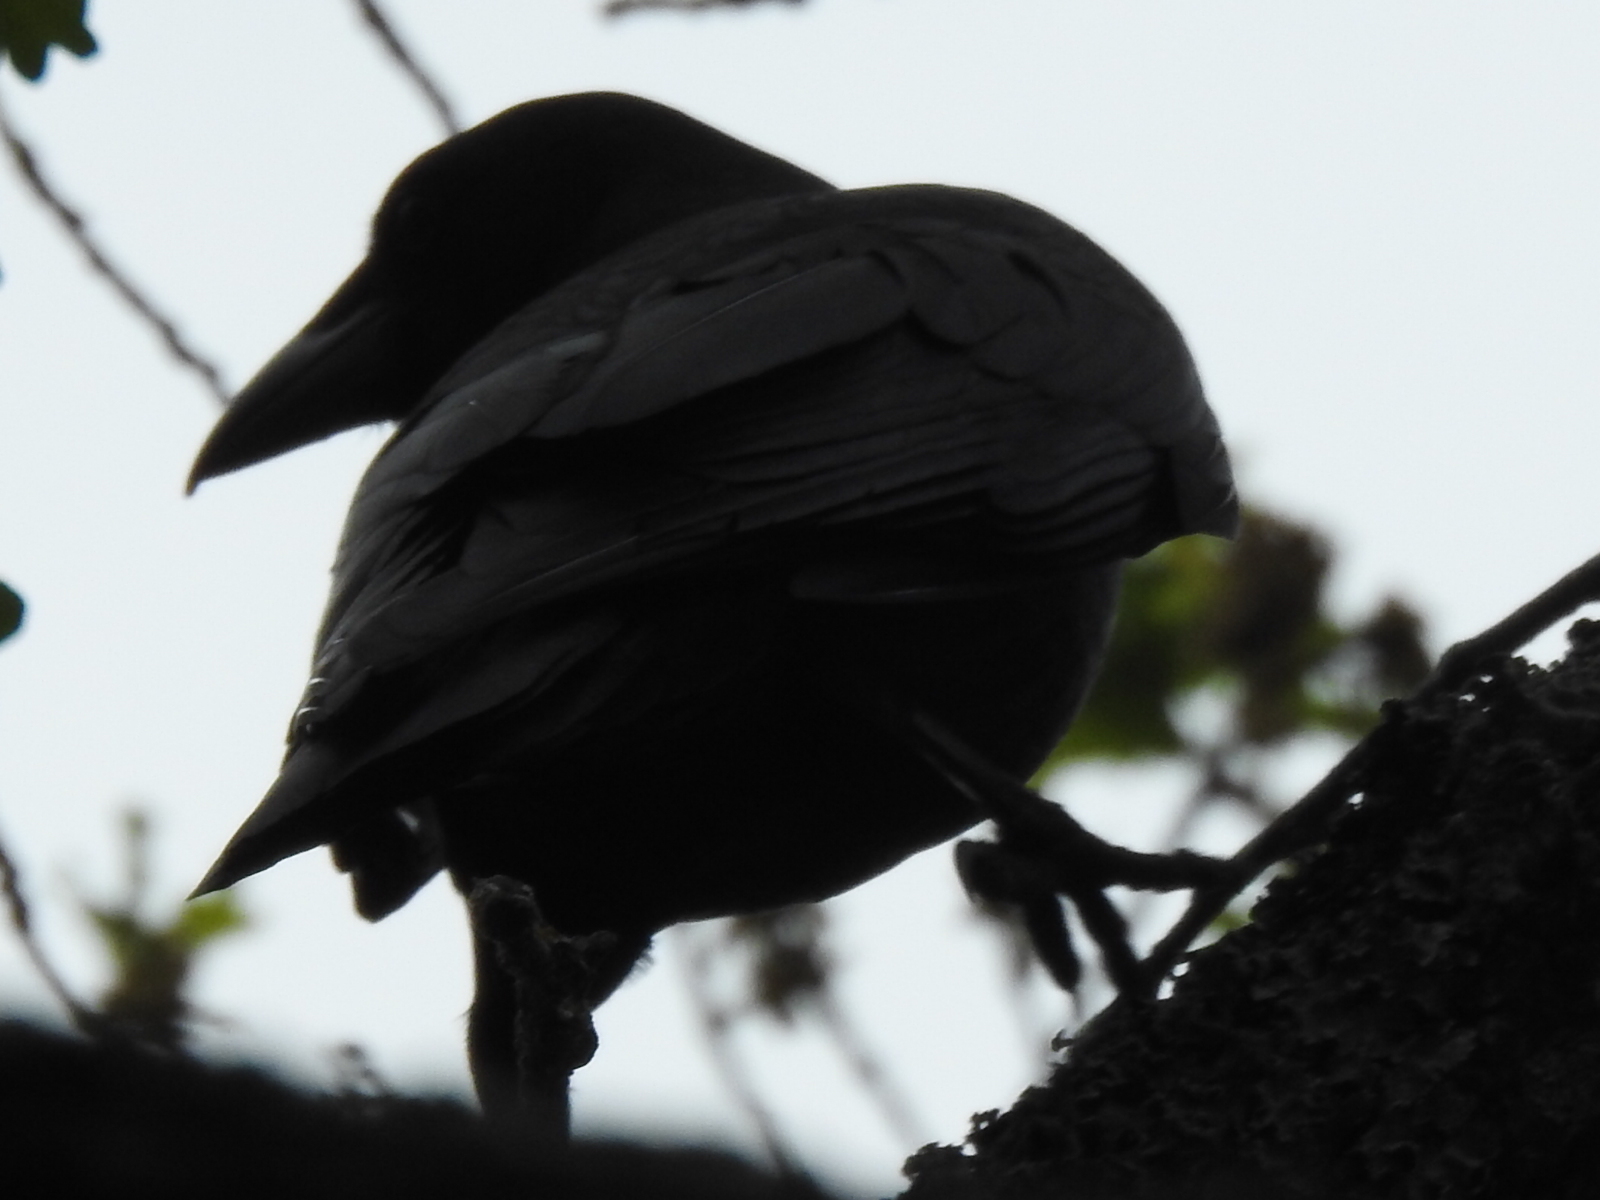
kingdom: Animalia
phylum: Chordata
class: Aves
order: Passeriformes
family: Corvidae
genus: Corvus
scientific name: Corvus brachyrhynchos
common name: American crow
